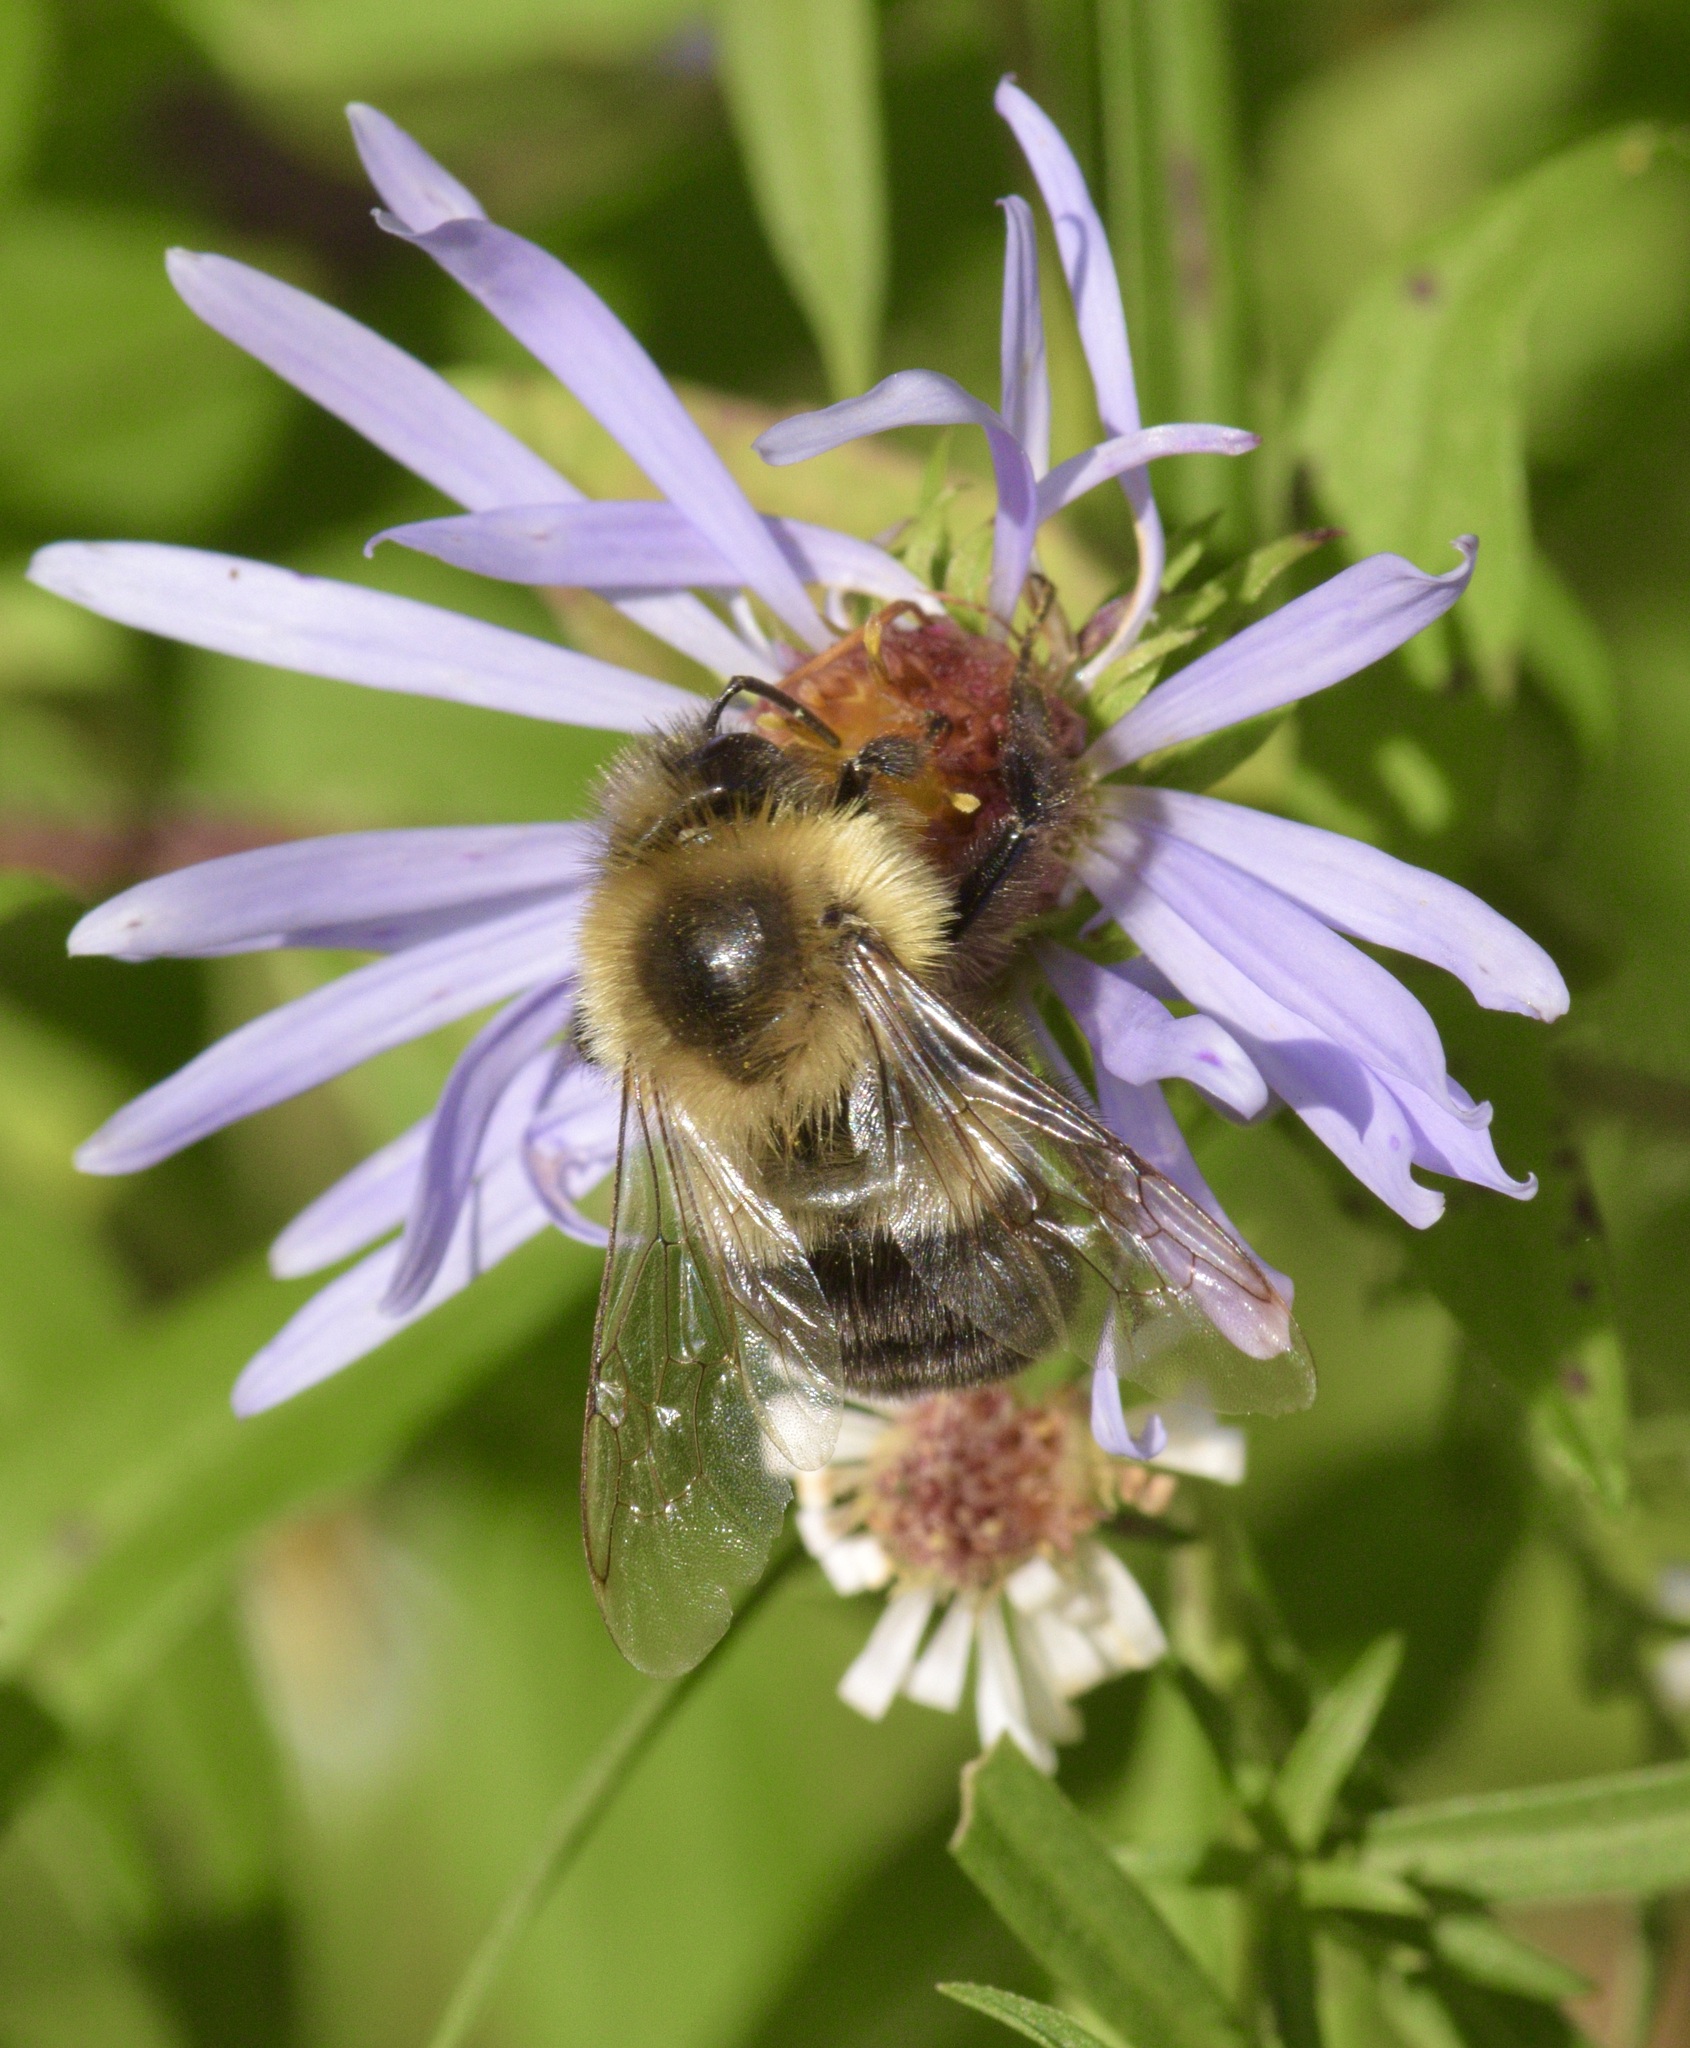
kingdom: Animalia
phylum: Arthropoda
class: Insecta
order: Hymenoptera
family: Apidae
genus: Bombus
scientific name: Bombus impatiens
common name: Common eastern bumble bee
